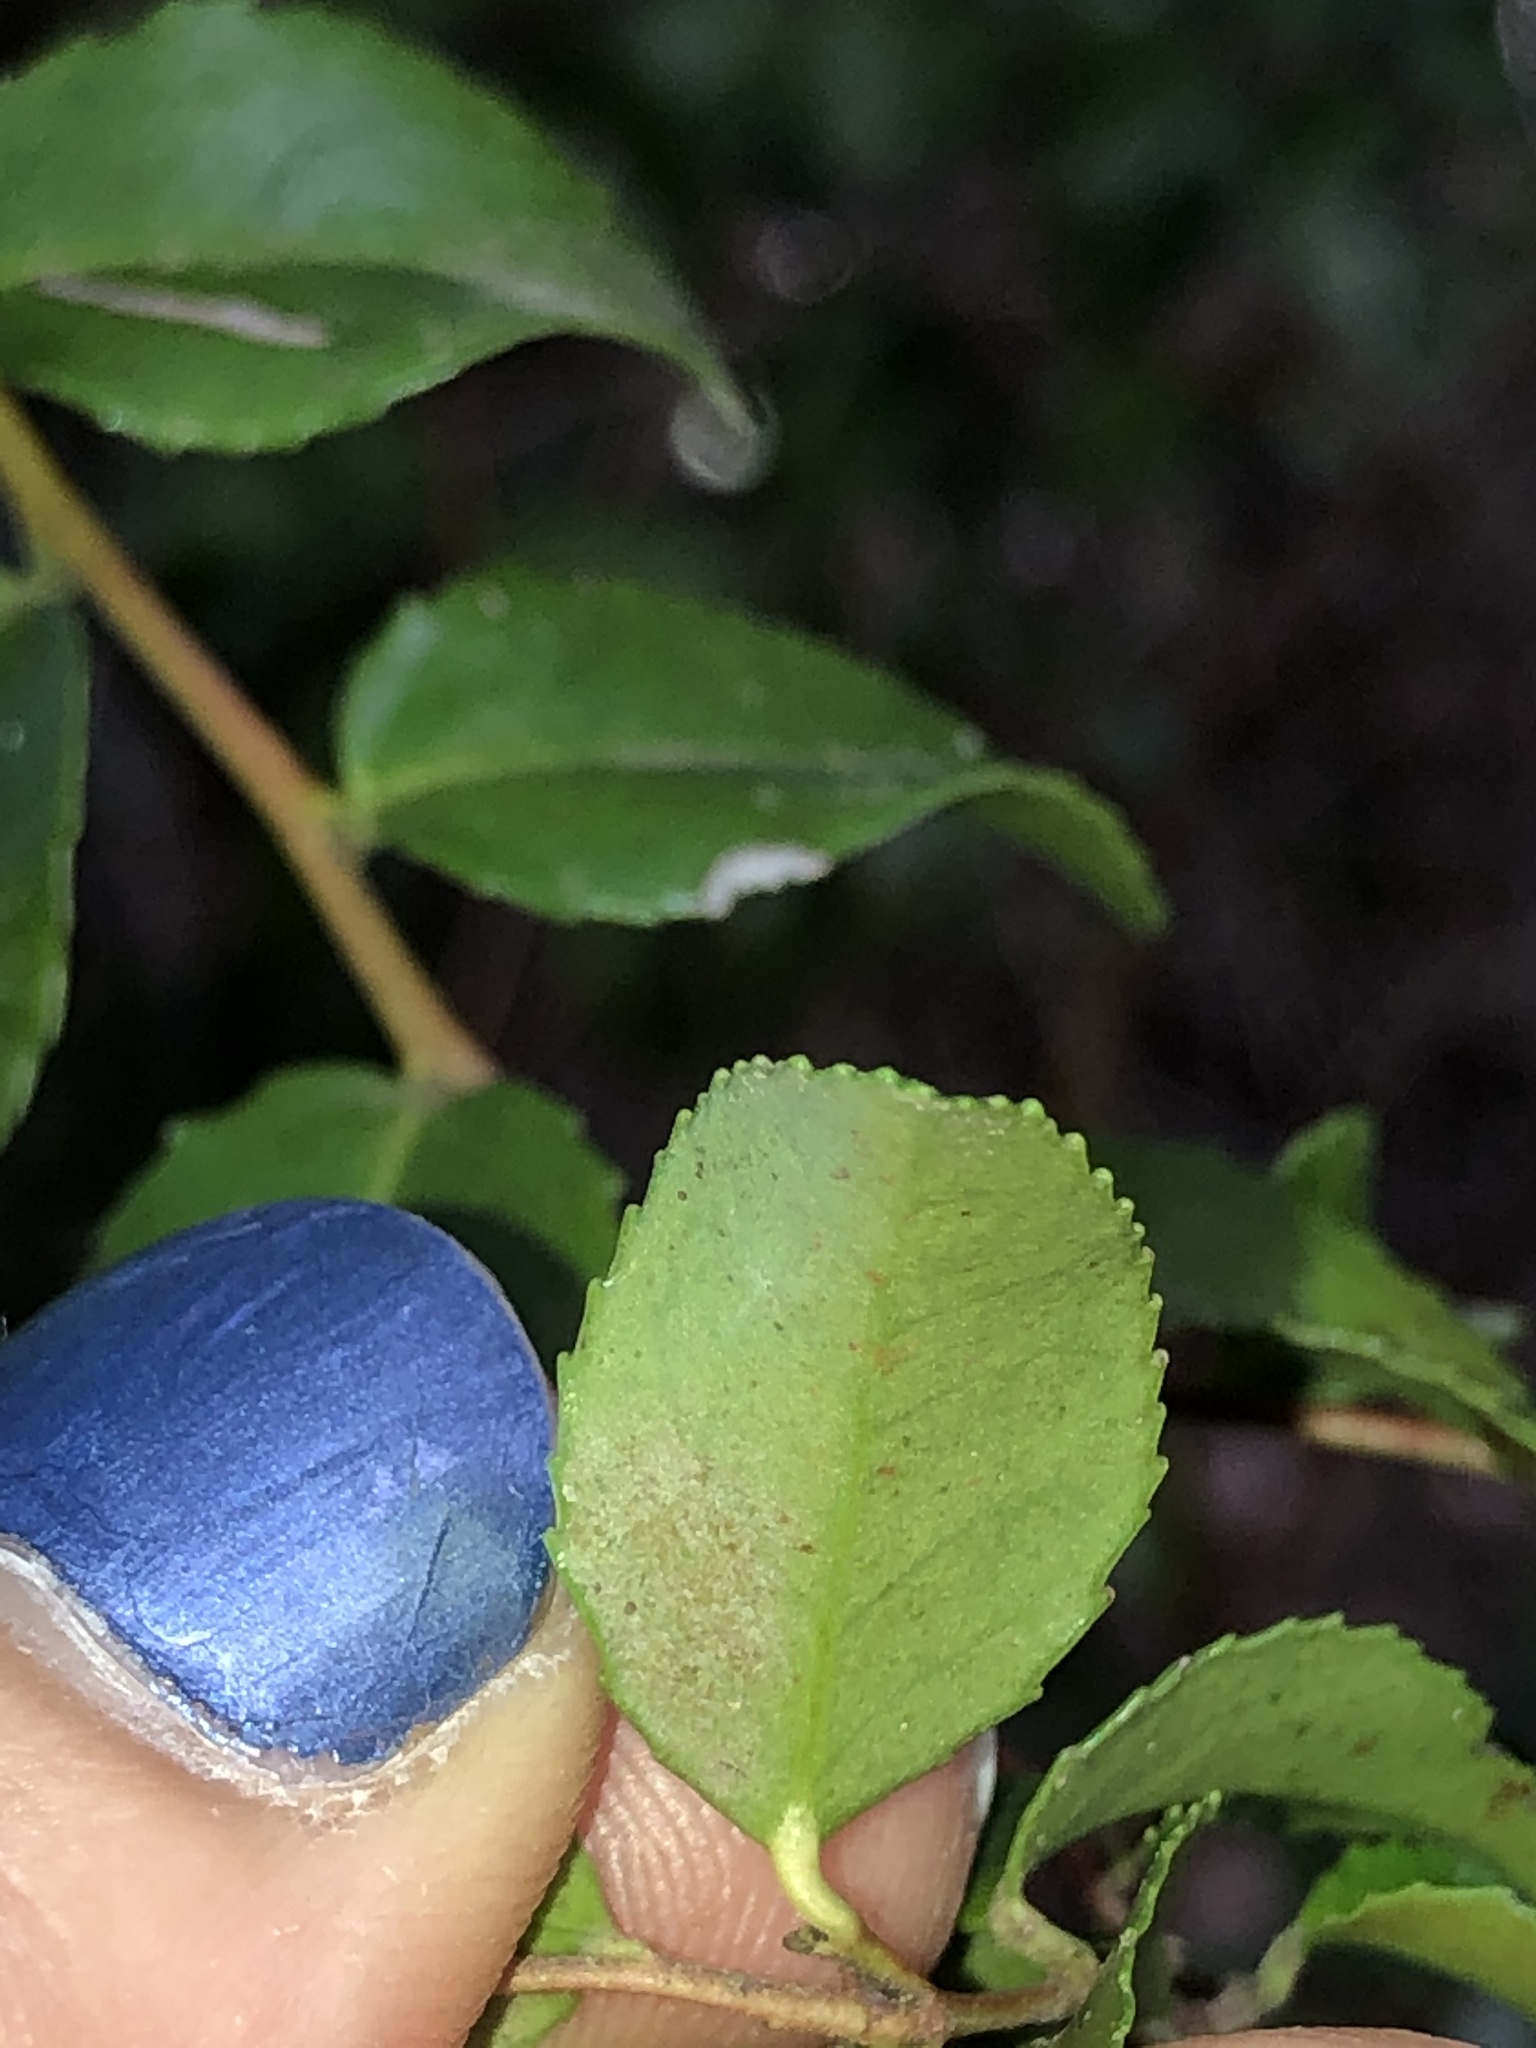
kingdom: Plantae
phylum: Tracheophyta
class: Magnoliopsida
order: Ericales
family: Ericaceae
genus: Vaccinium
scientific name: Vaccinium ovatum
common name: California-huckleberry
